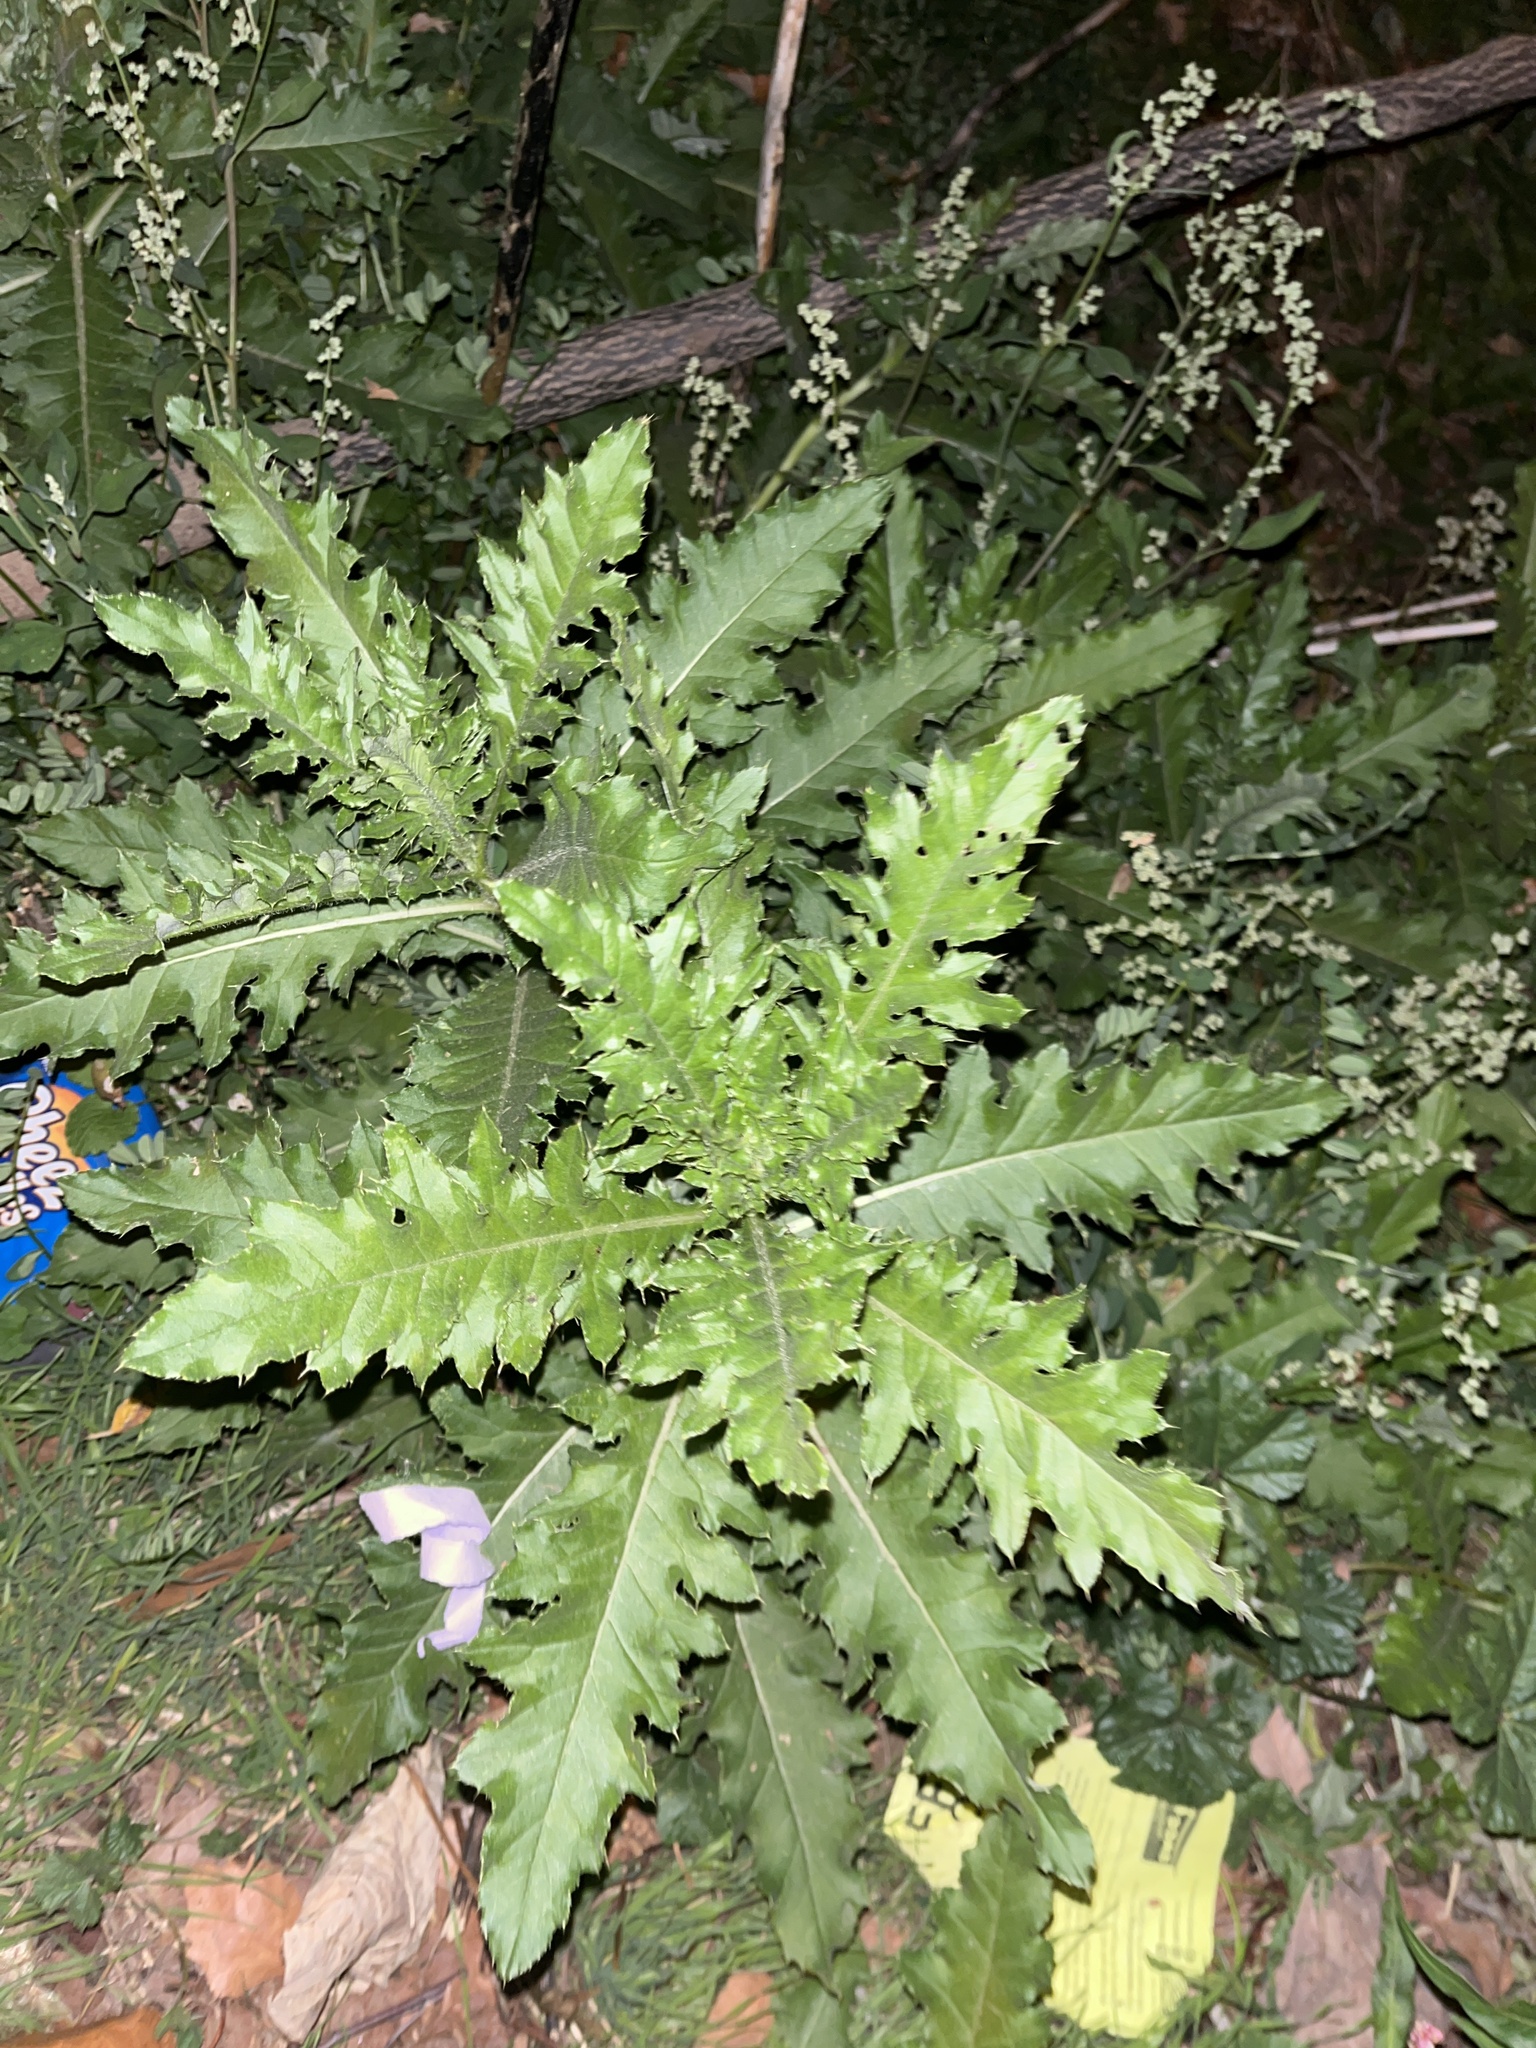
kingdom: Plantae
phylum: Tracheophyta
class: Magnoliopsida
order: Asterales
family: Asteraceae
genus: Cirsium
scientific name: Cirsium arvense
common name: Creeping thistle
